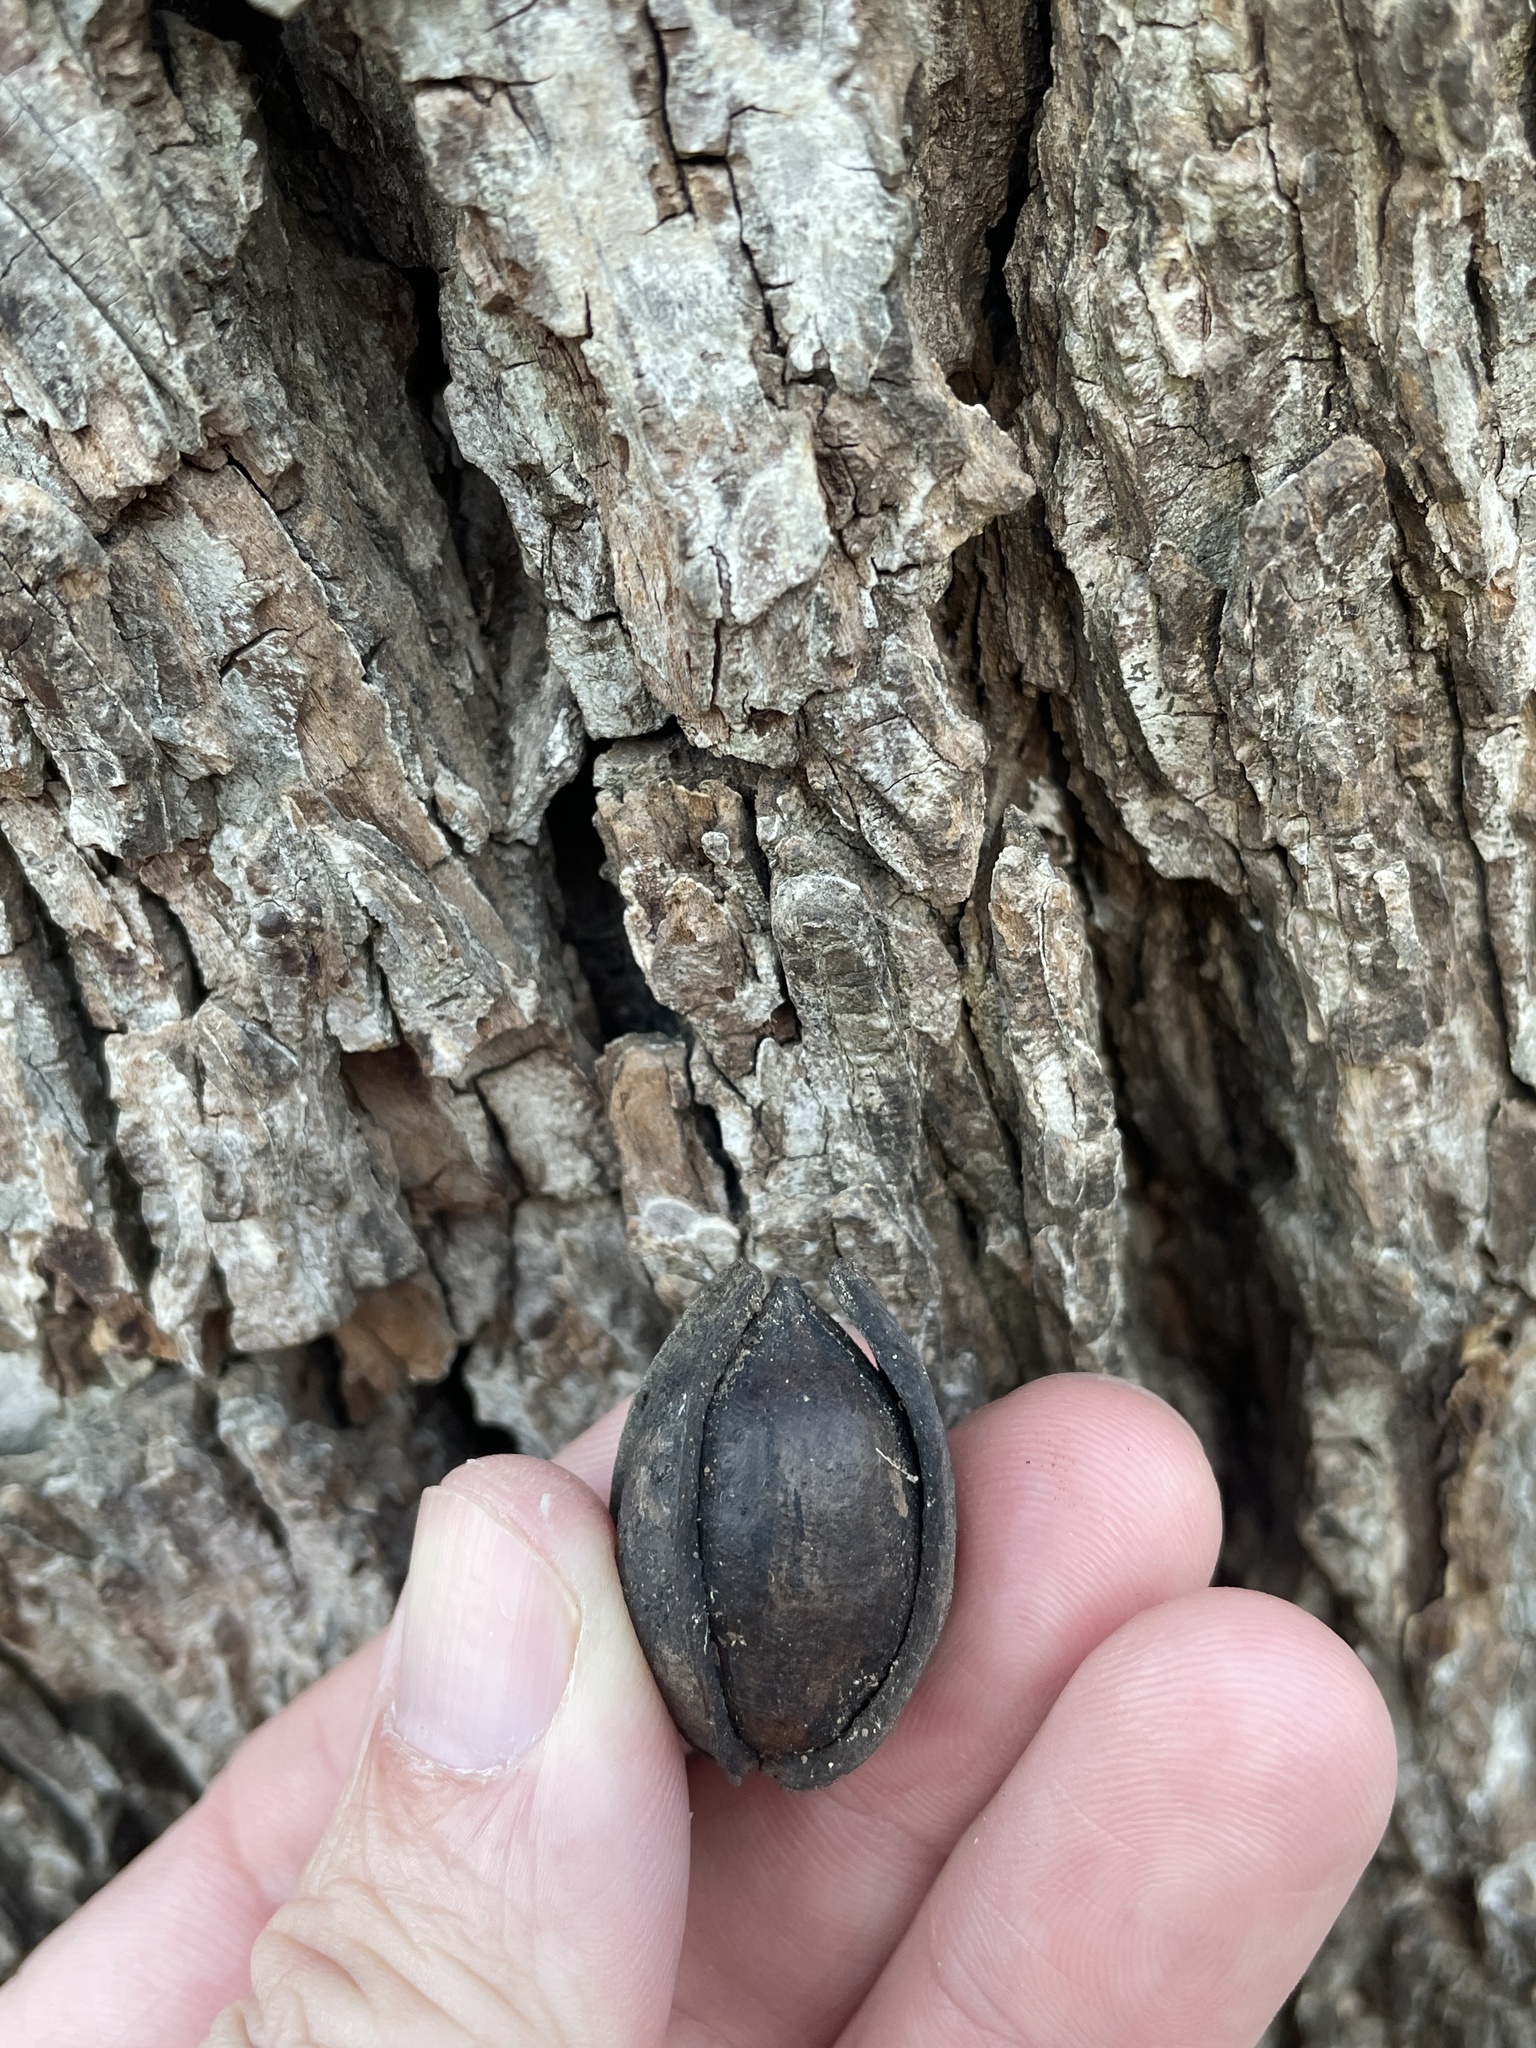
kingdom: Plantae
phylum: Tracheophyta
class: Magnoliopsida
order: Fagales
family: Juglandaceae
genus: Carya
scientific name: Carya illinoinensis
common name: Pecan
